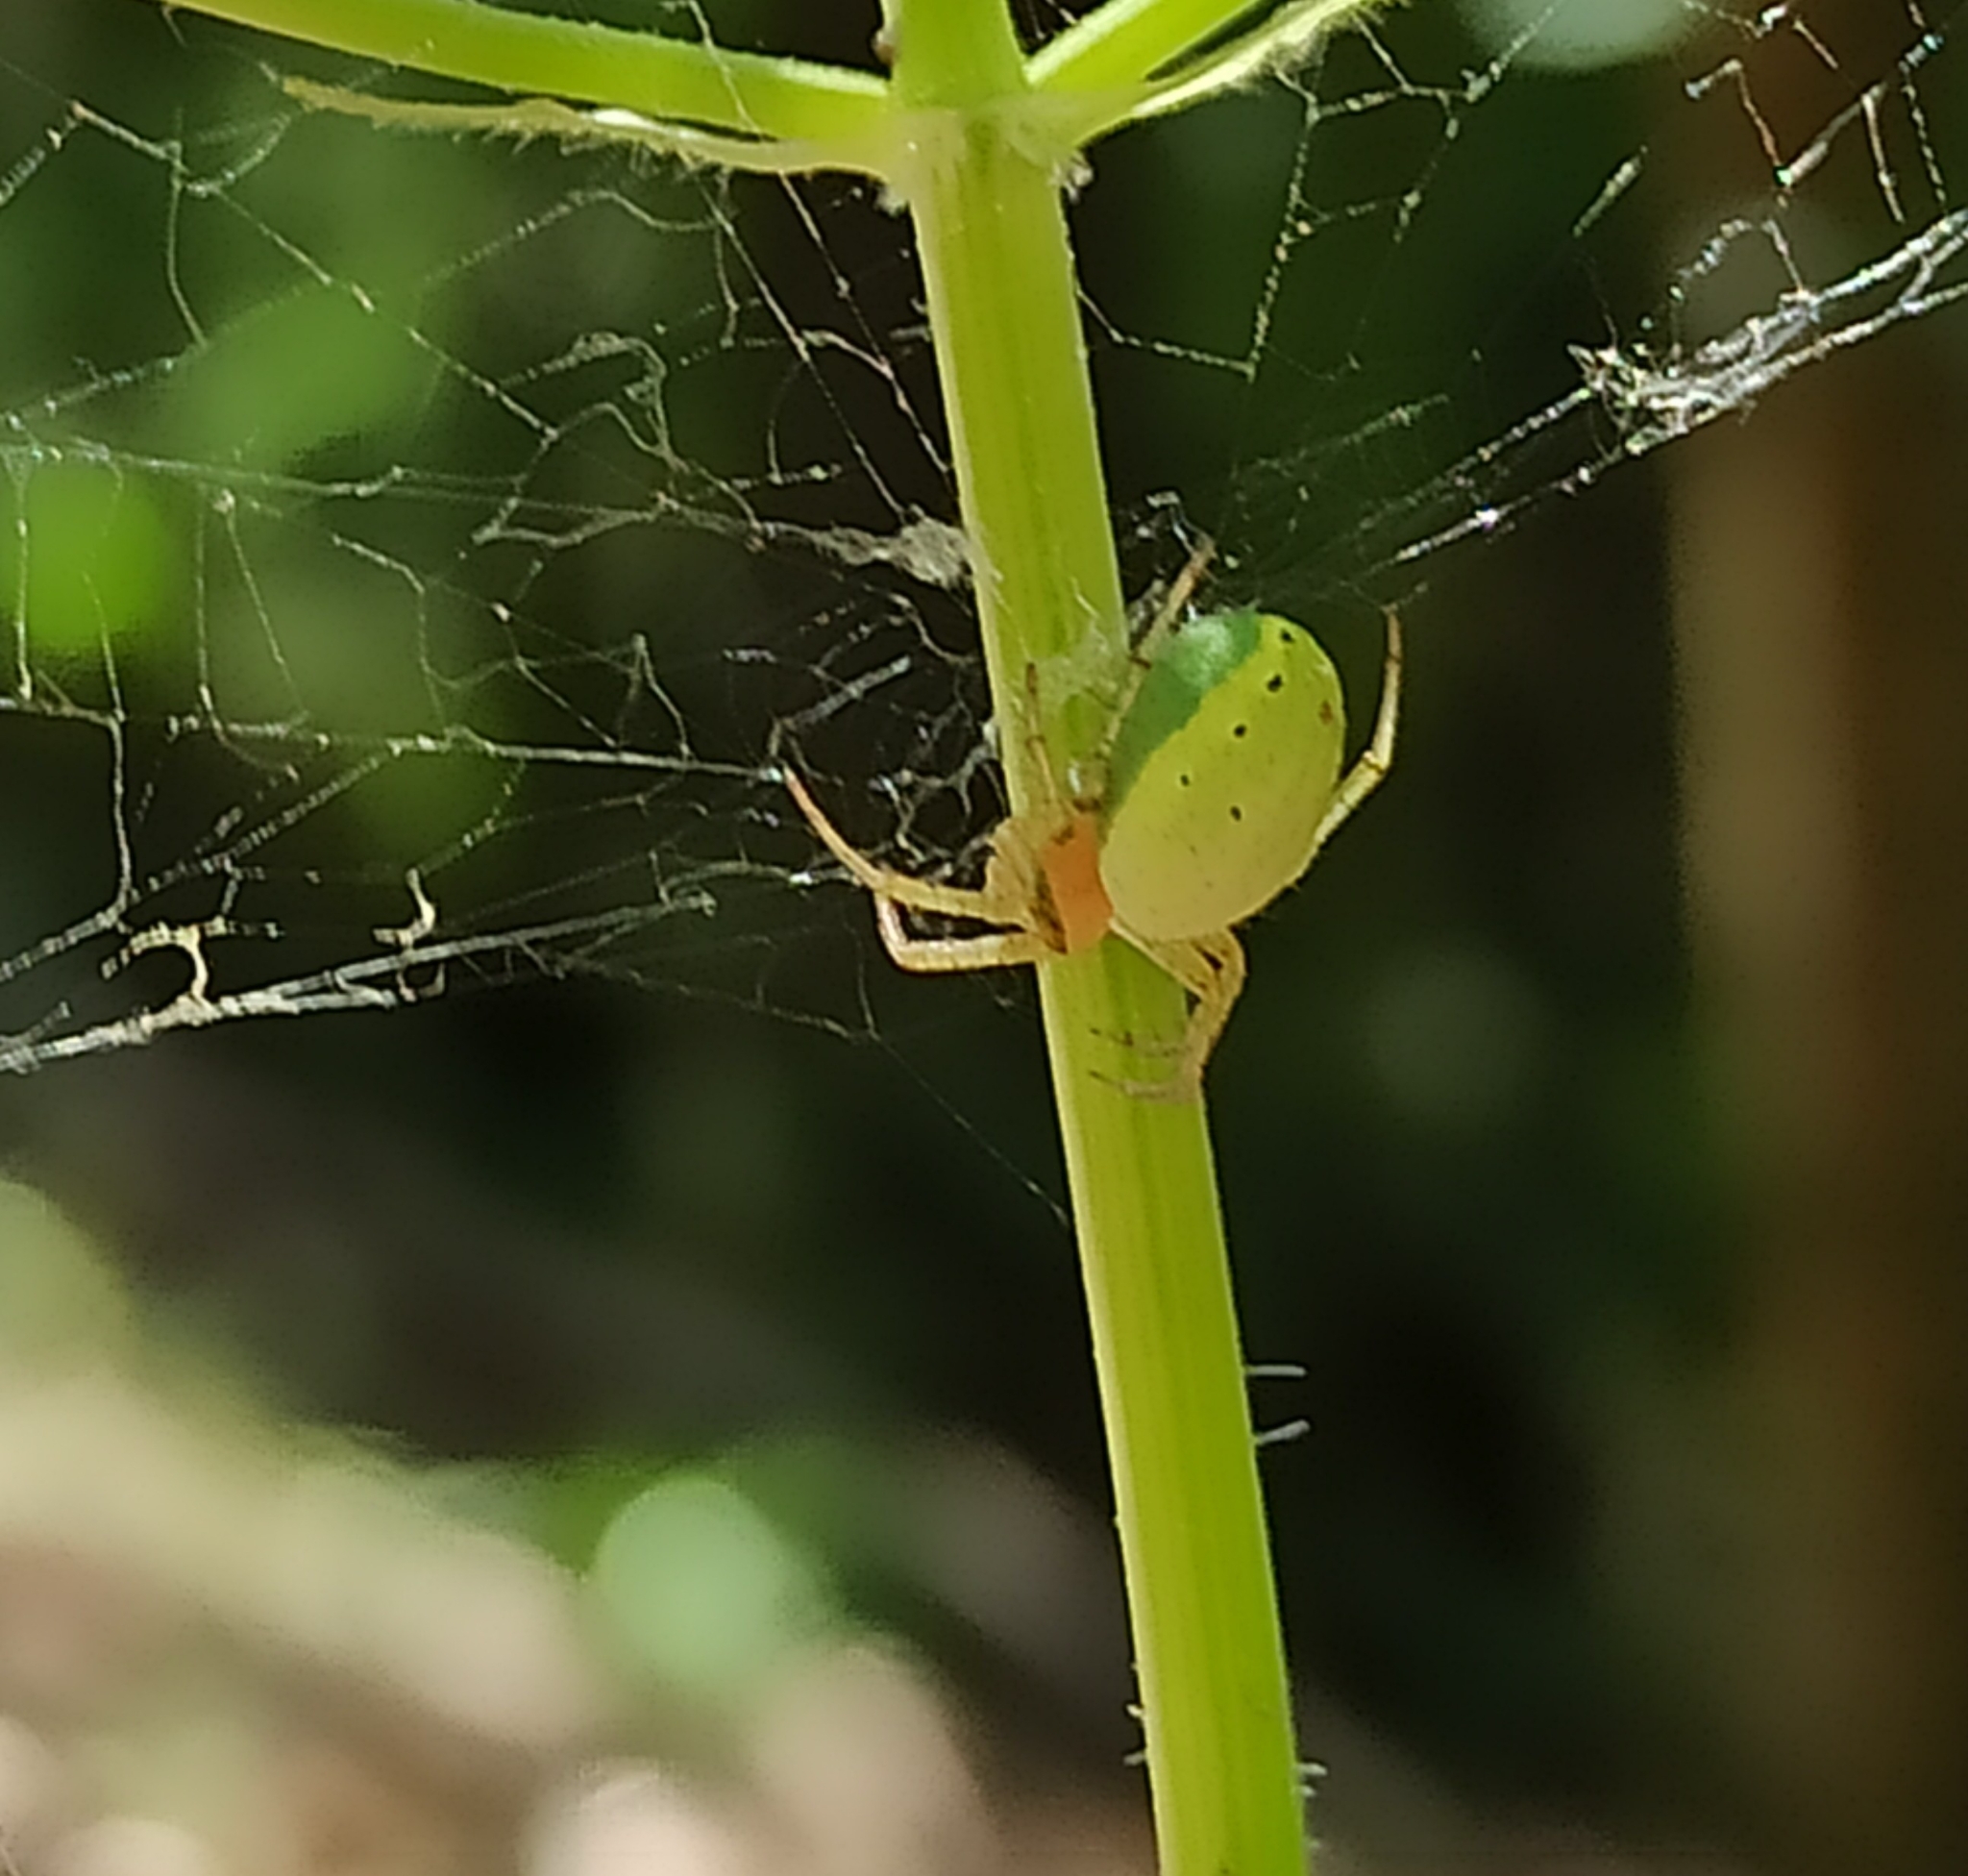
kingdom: Animalia
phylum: Arthropoda
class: Arachnida
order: Araneae
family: Araneidae
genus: Araniella
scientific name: Araniella
